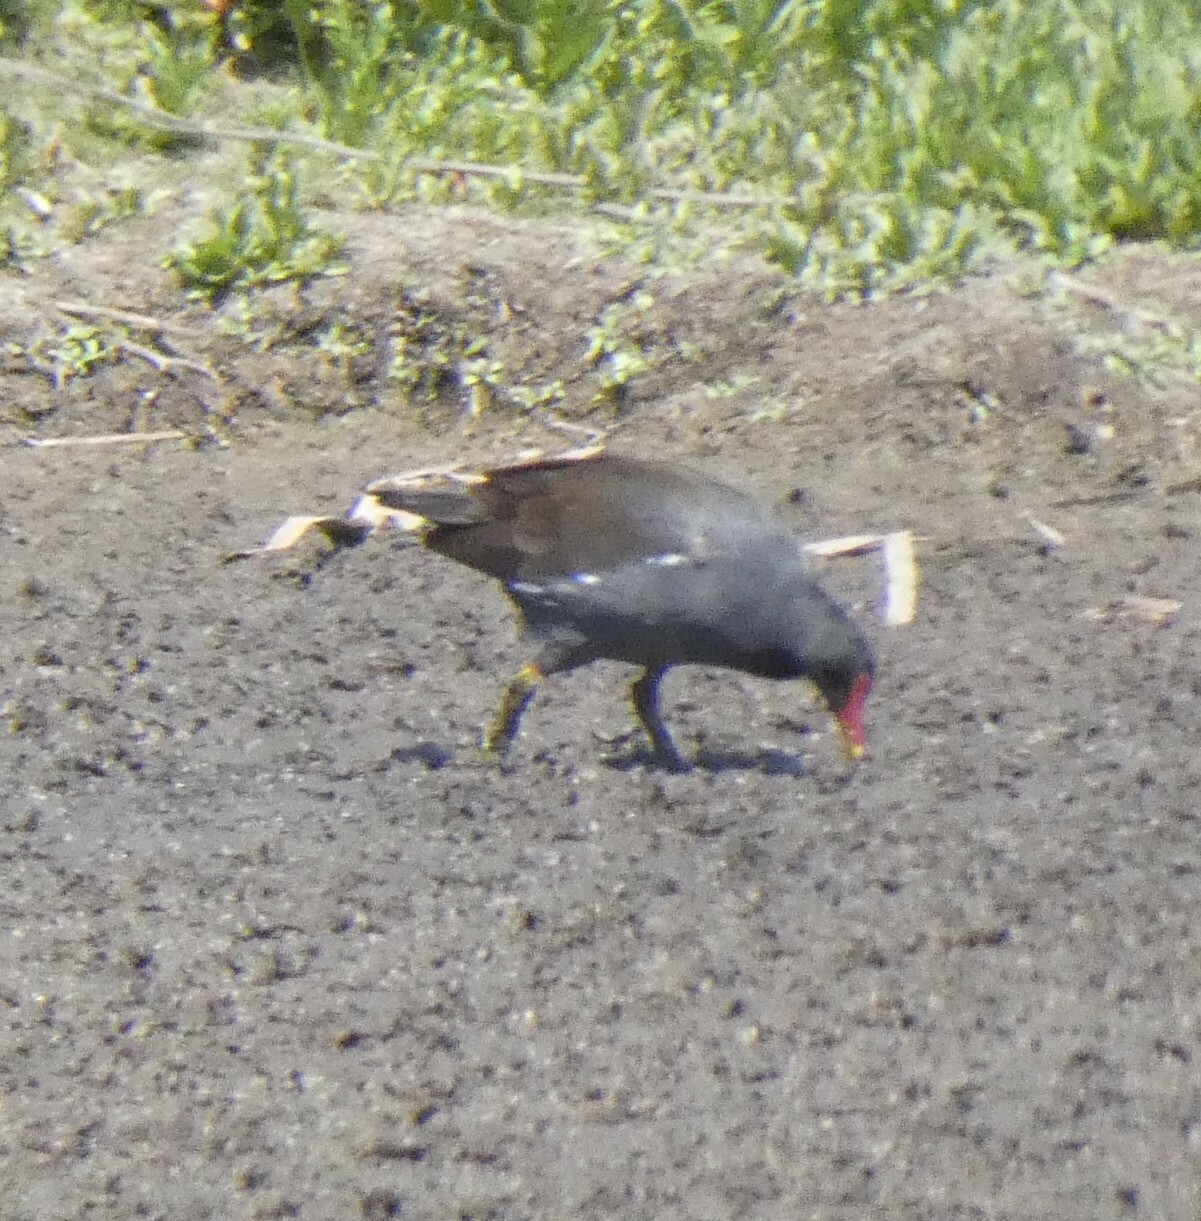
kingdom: Animalia
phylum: Chordata
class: Aves
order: Gruiformes
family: Rallidae
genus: Gallinula
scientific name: Gallinula chloropus
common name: Common moorhen
